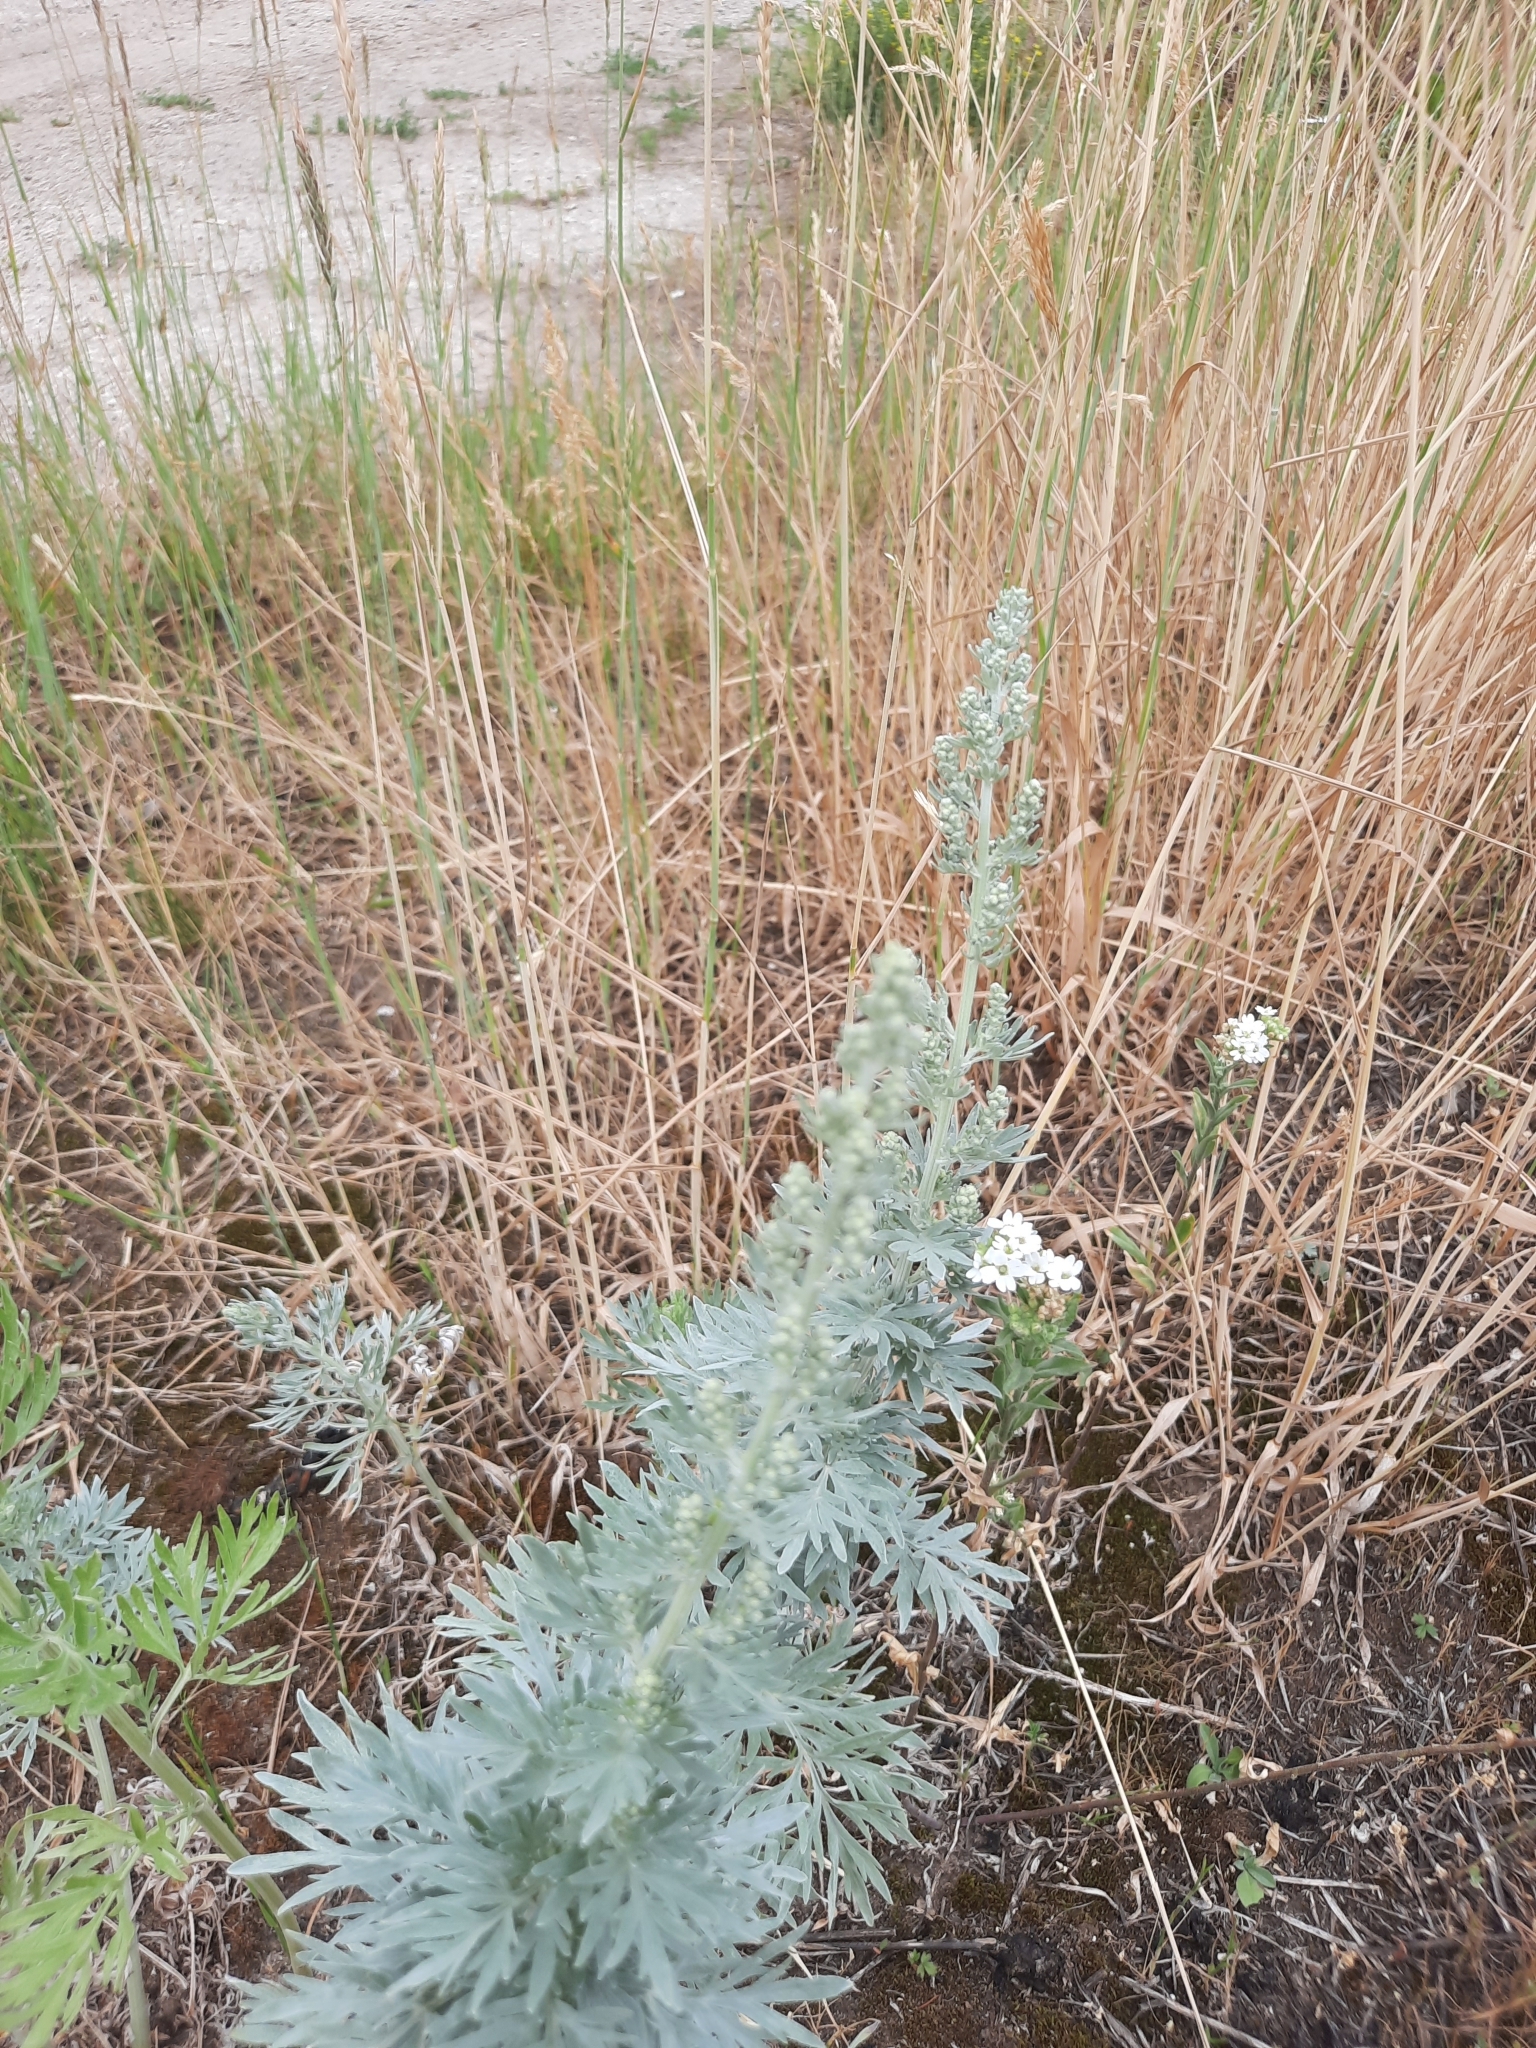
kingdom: Plantae
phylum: Tracheophyta
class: Magnoliopsida
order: Asterales
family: Asteraceae
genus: Artemisia
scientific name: Artemisia absinthium
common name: Wormwood
